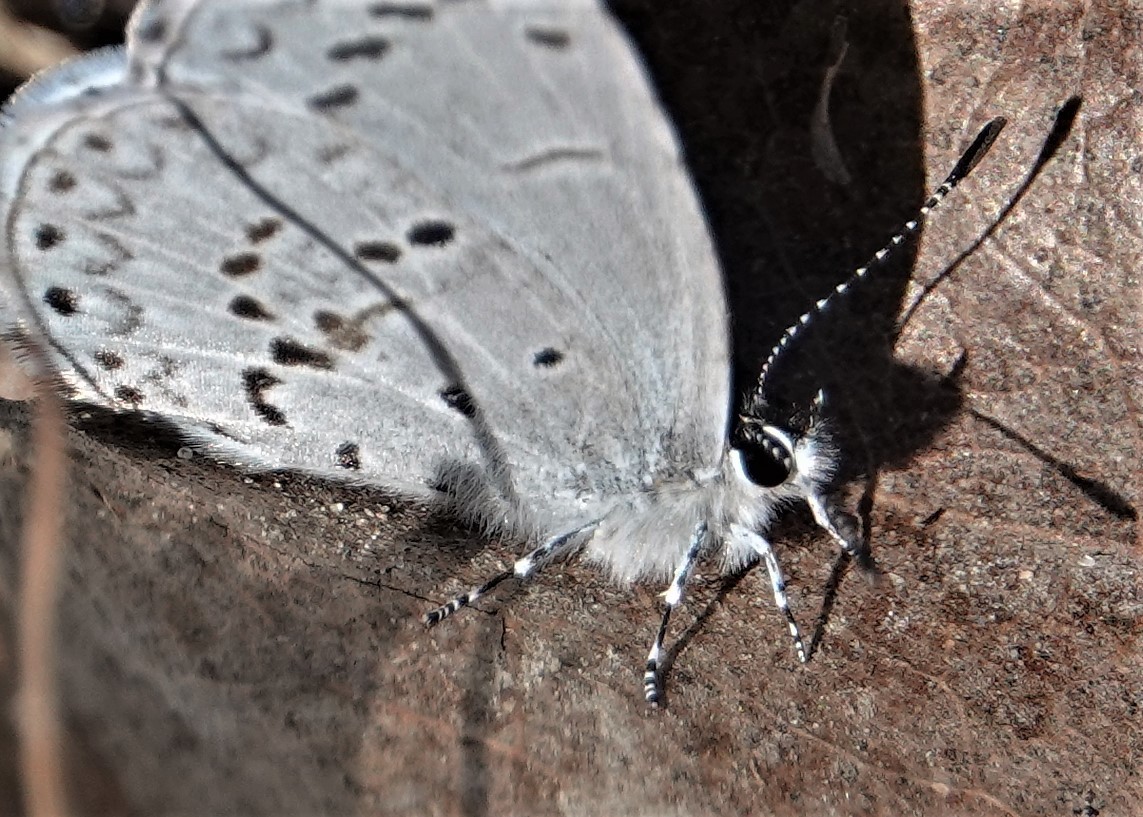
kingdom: Animalia
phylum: Arthropoda
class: Insecta
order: Lepidoptera
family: Lycaenidae
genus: Celastrina
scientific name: Celastrina lucia
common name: Lucia azure
